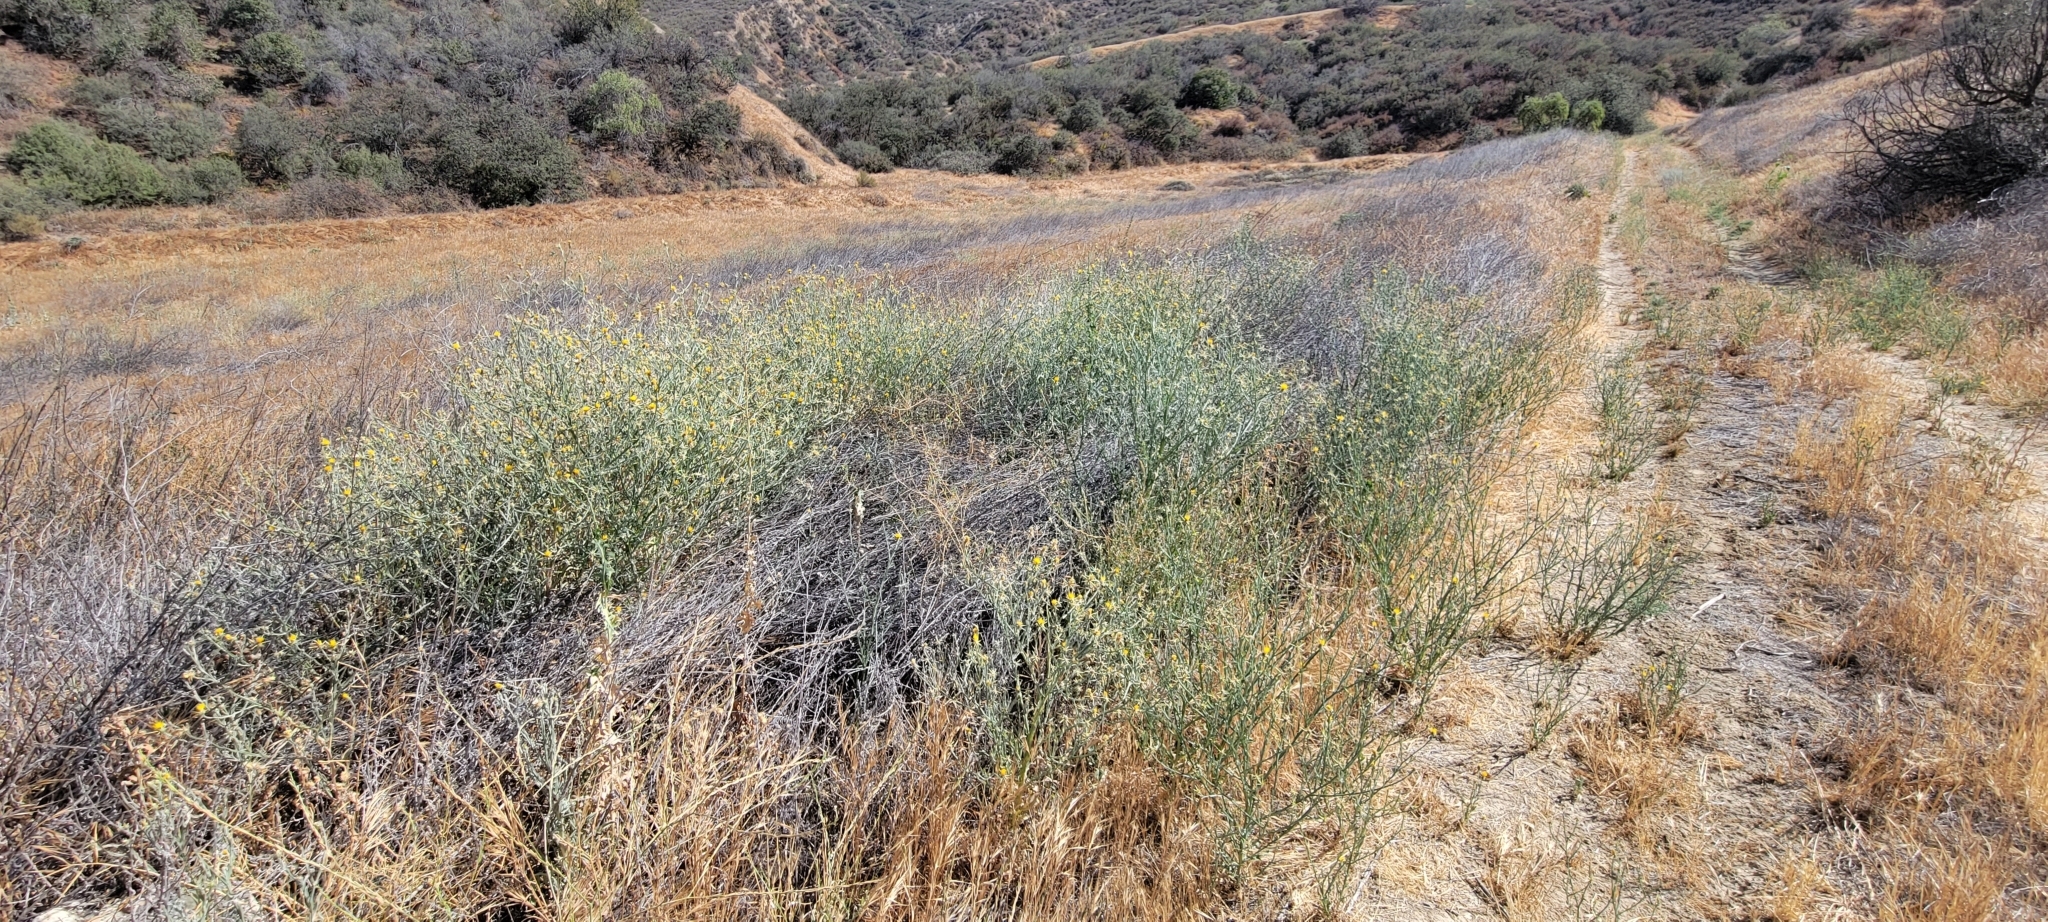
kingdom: Plantae
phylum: Tracheophyta
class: Magnoliopsida
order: Asterales
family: Asteraceae
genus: Centaurea
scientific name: Centaurea solstitialis
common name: Yellow star-thistle
